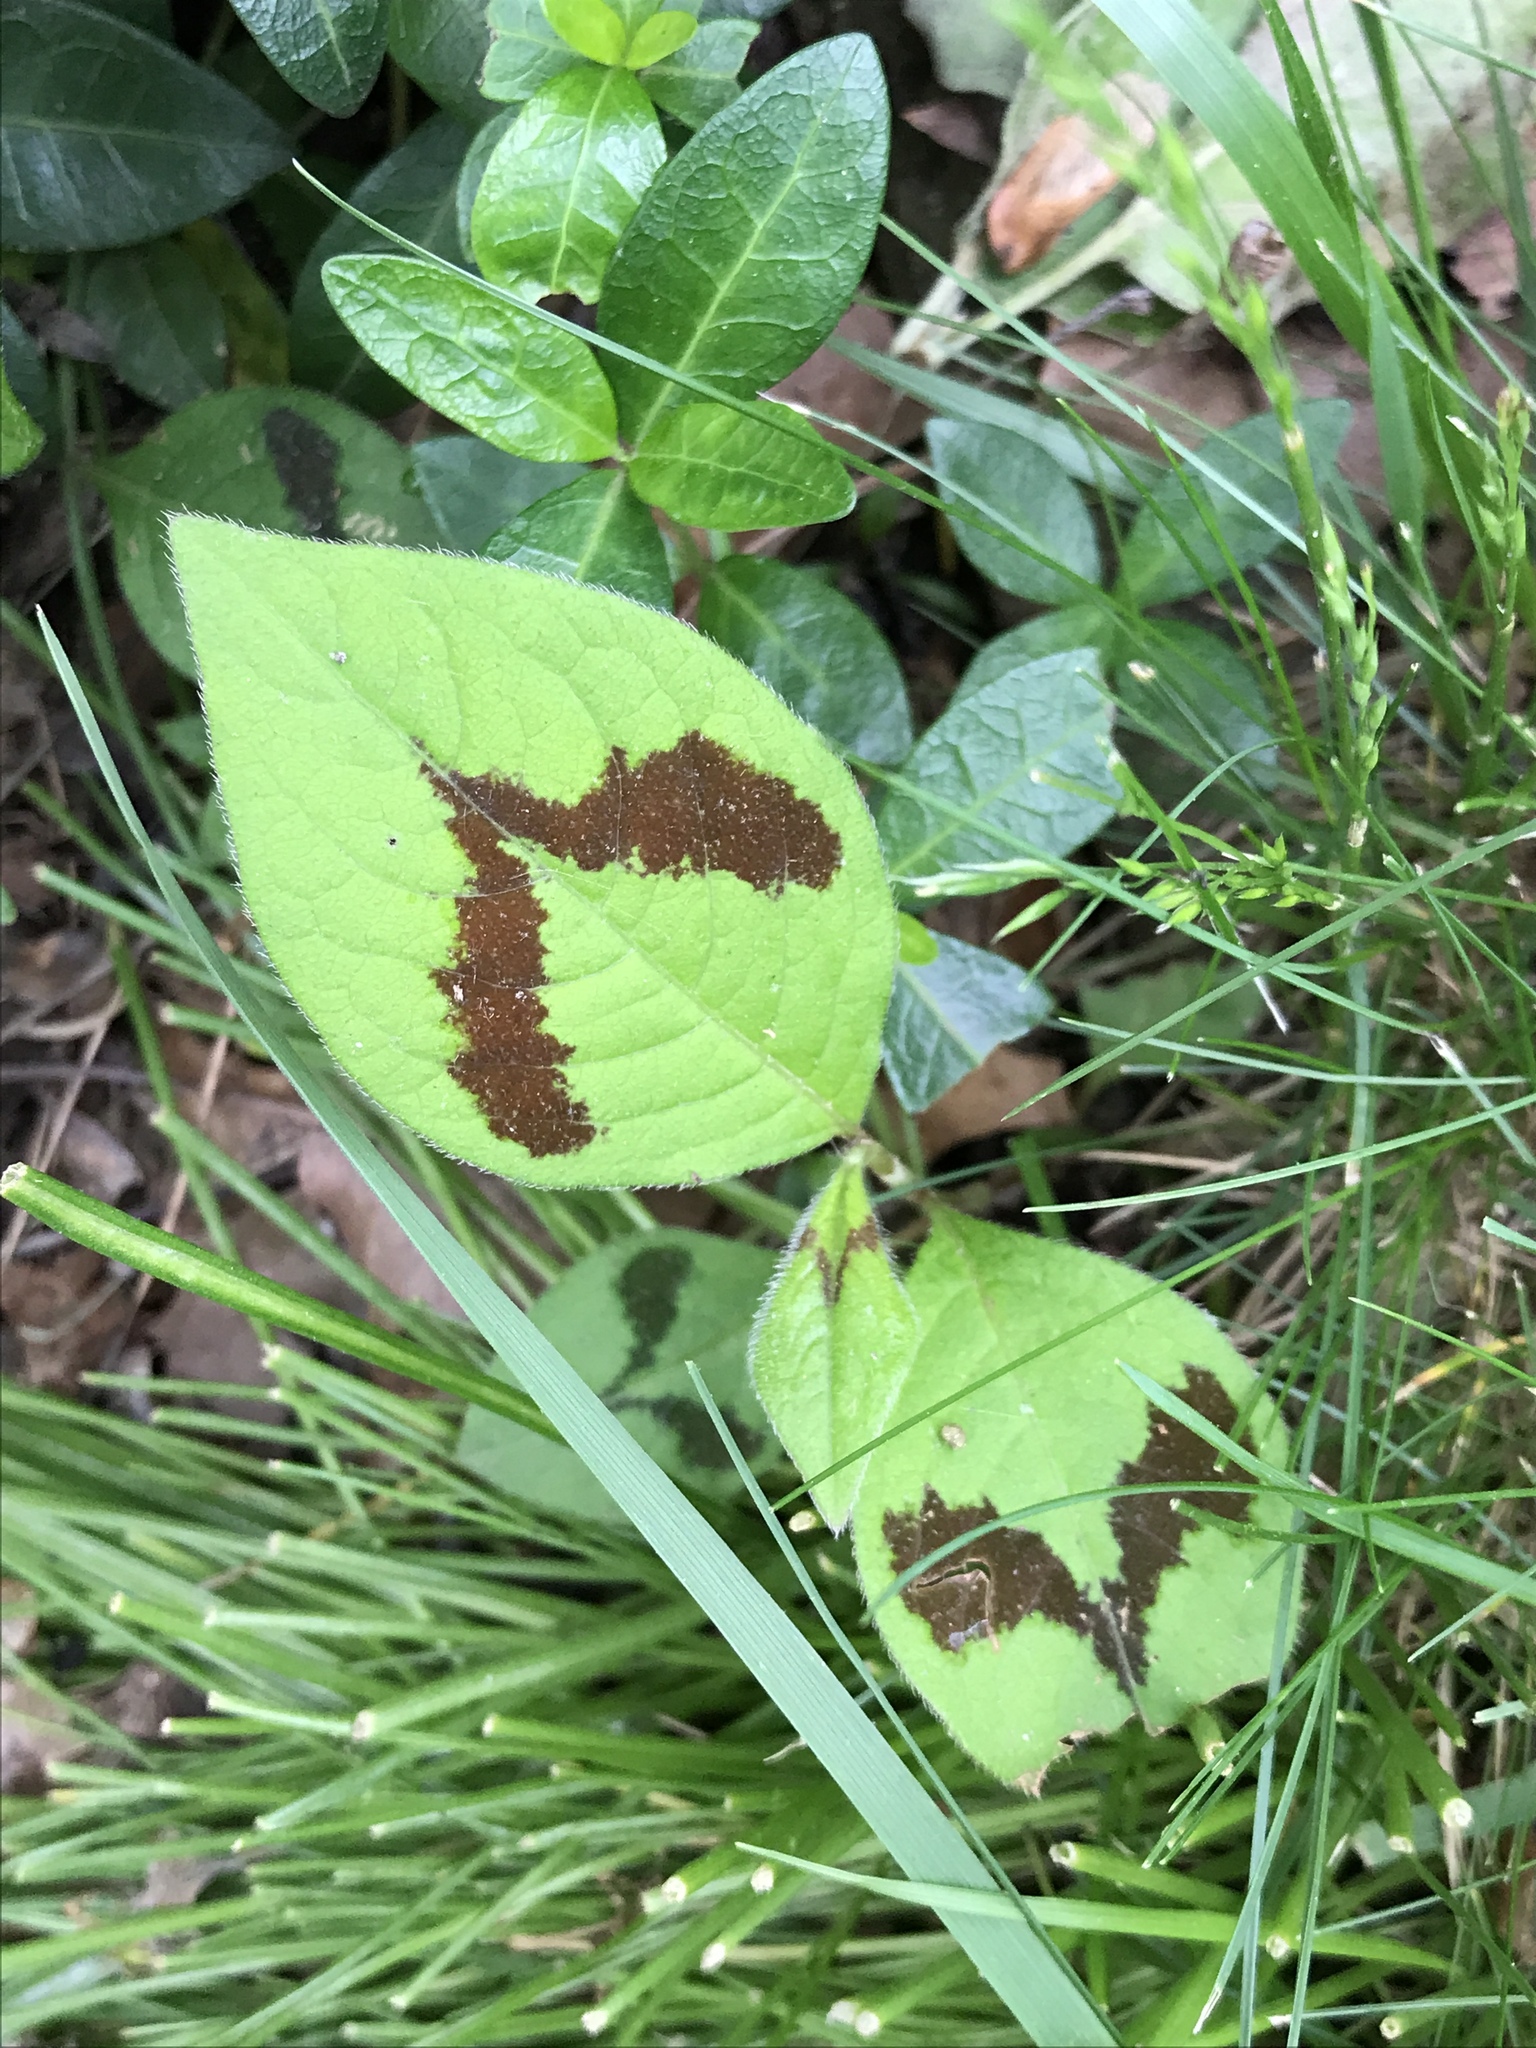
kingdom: Plantae
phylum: Tracheophyta
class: Magnoliopsida
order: Caryophyllales
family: Polygonaceae
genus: Persicaria
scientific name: Persicaria filiformis
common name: Asian jumpseed
